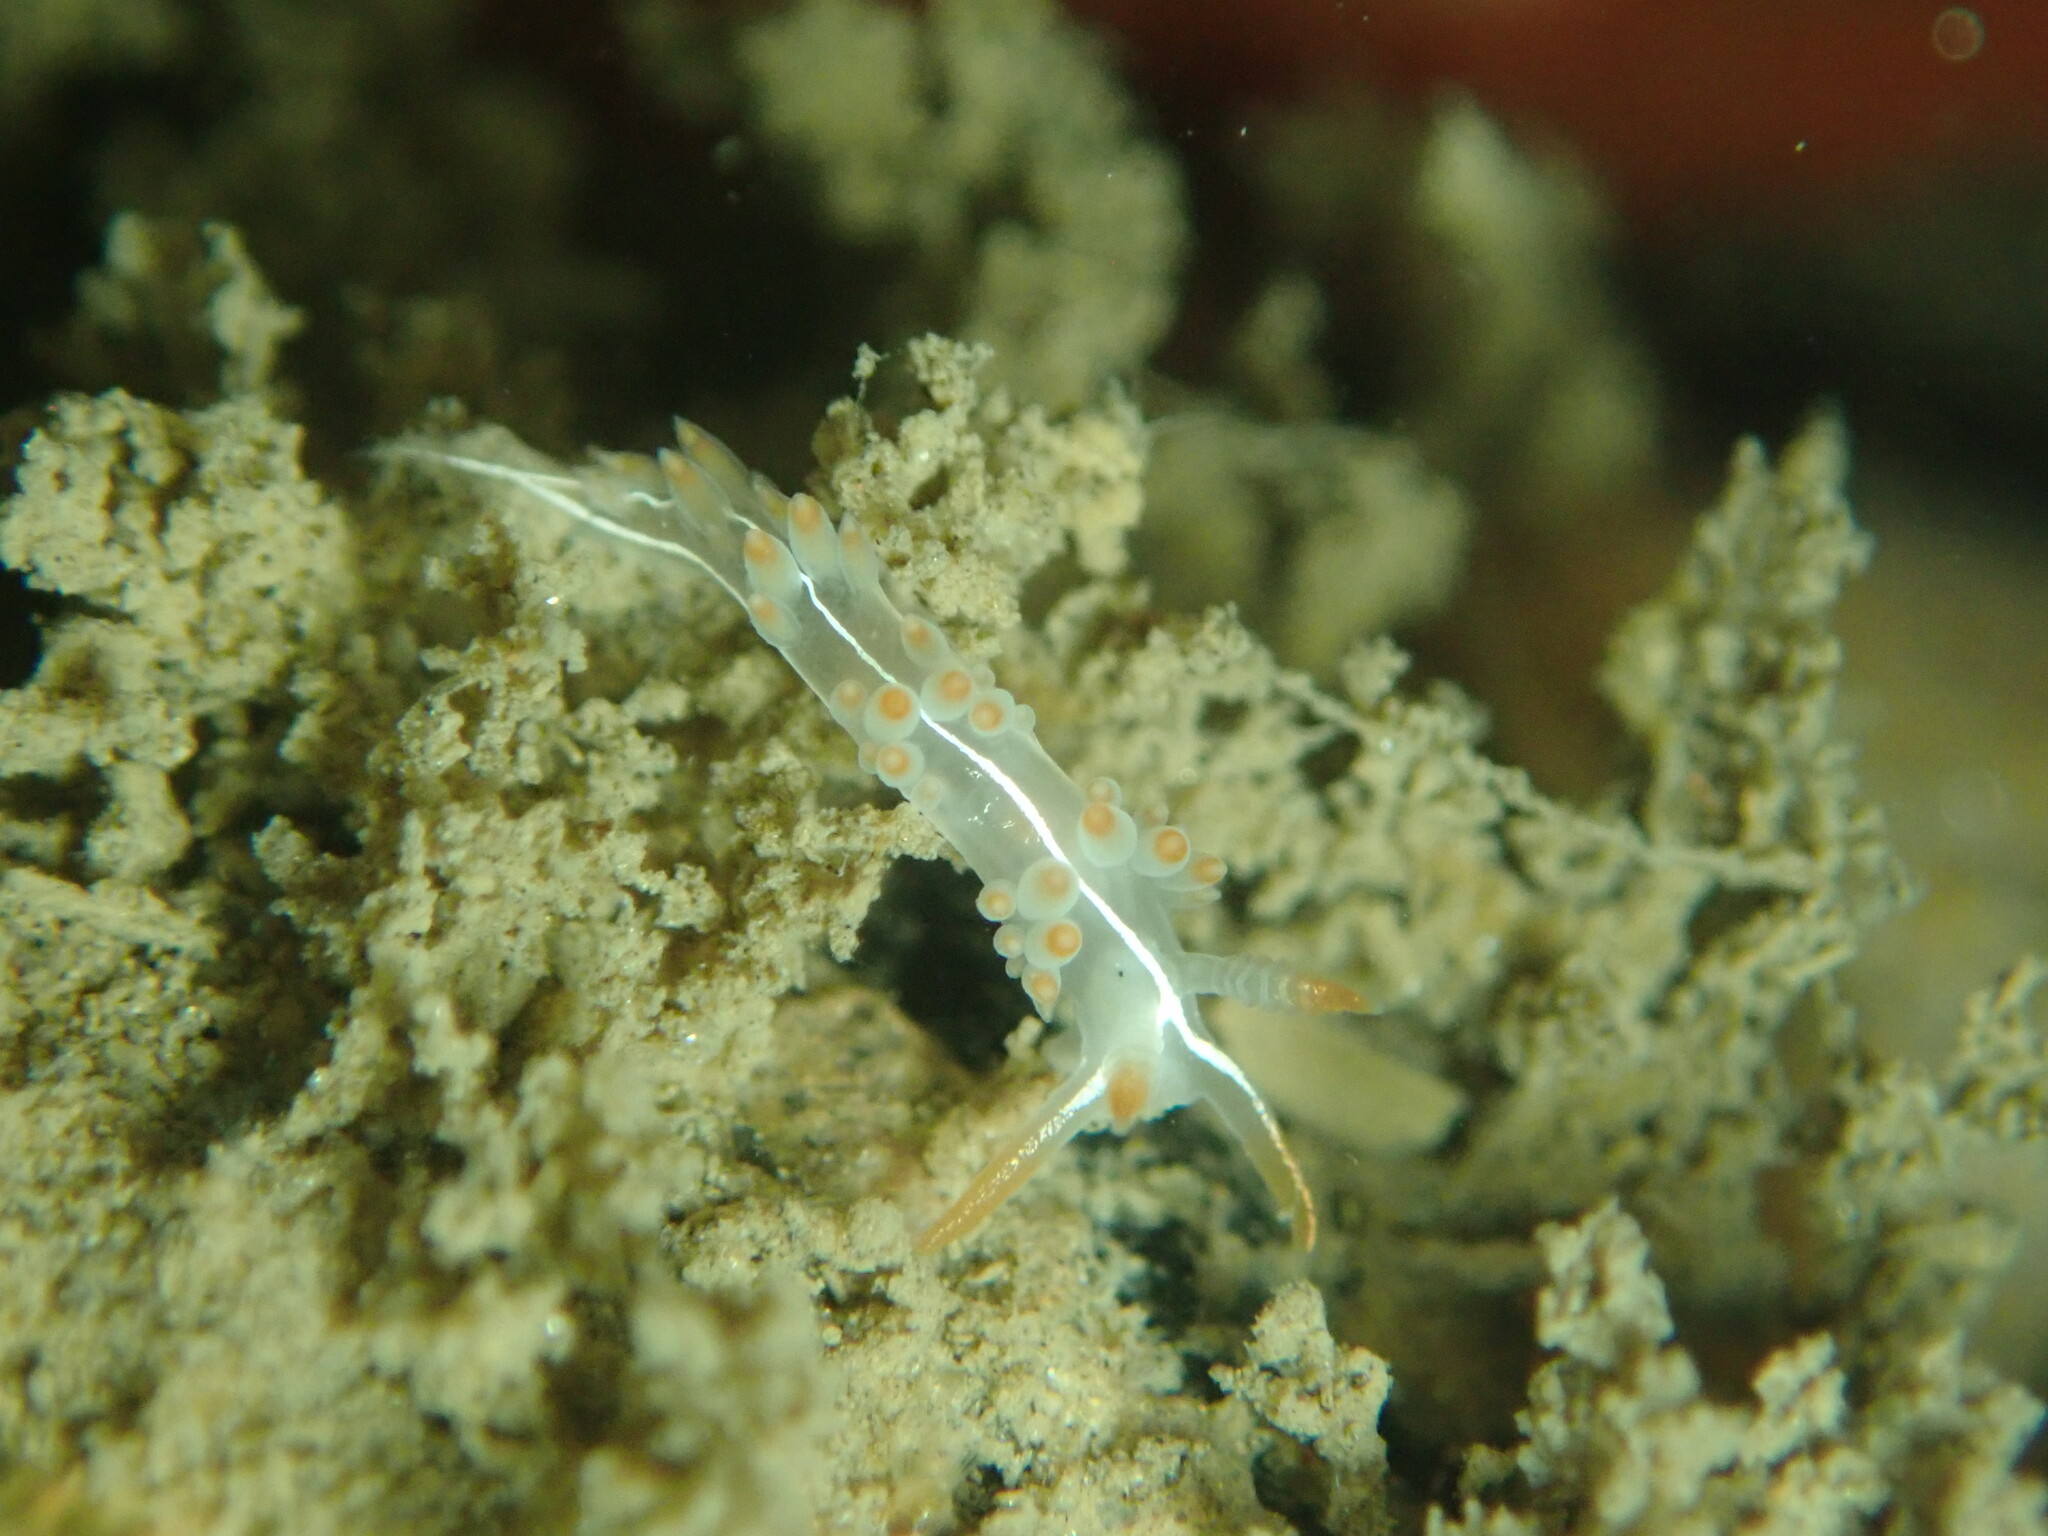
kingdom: Animalia
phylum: Mollusca
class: Gastropoda
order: Nudibranchia
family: Coryphellidae
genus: Coryphella
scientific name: Coryphella trilineata
